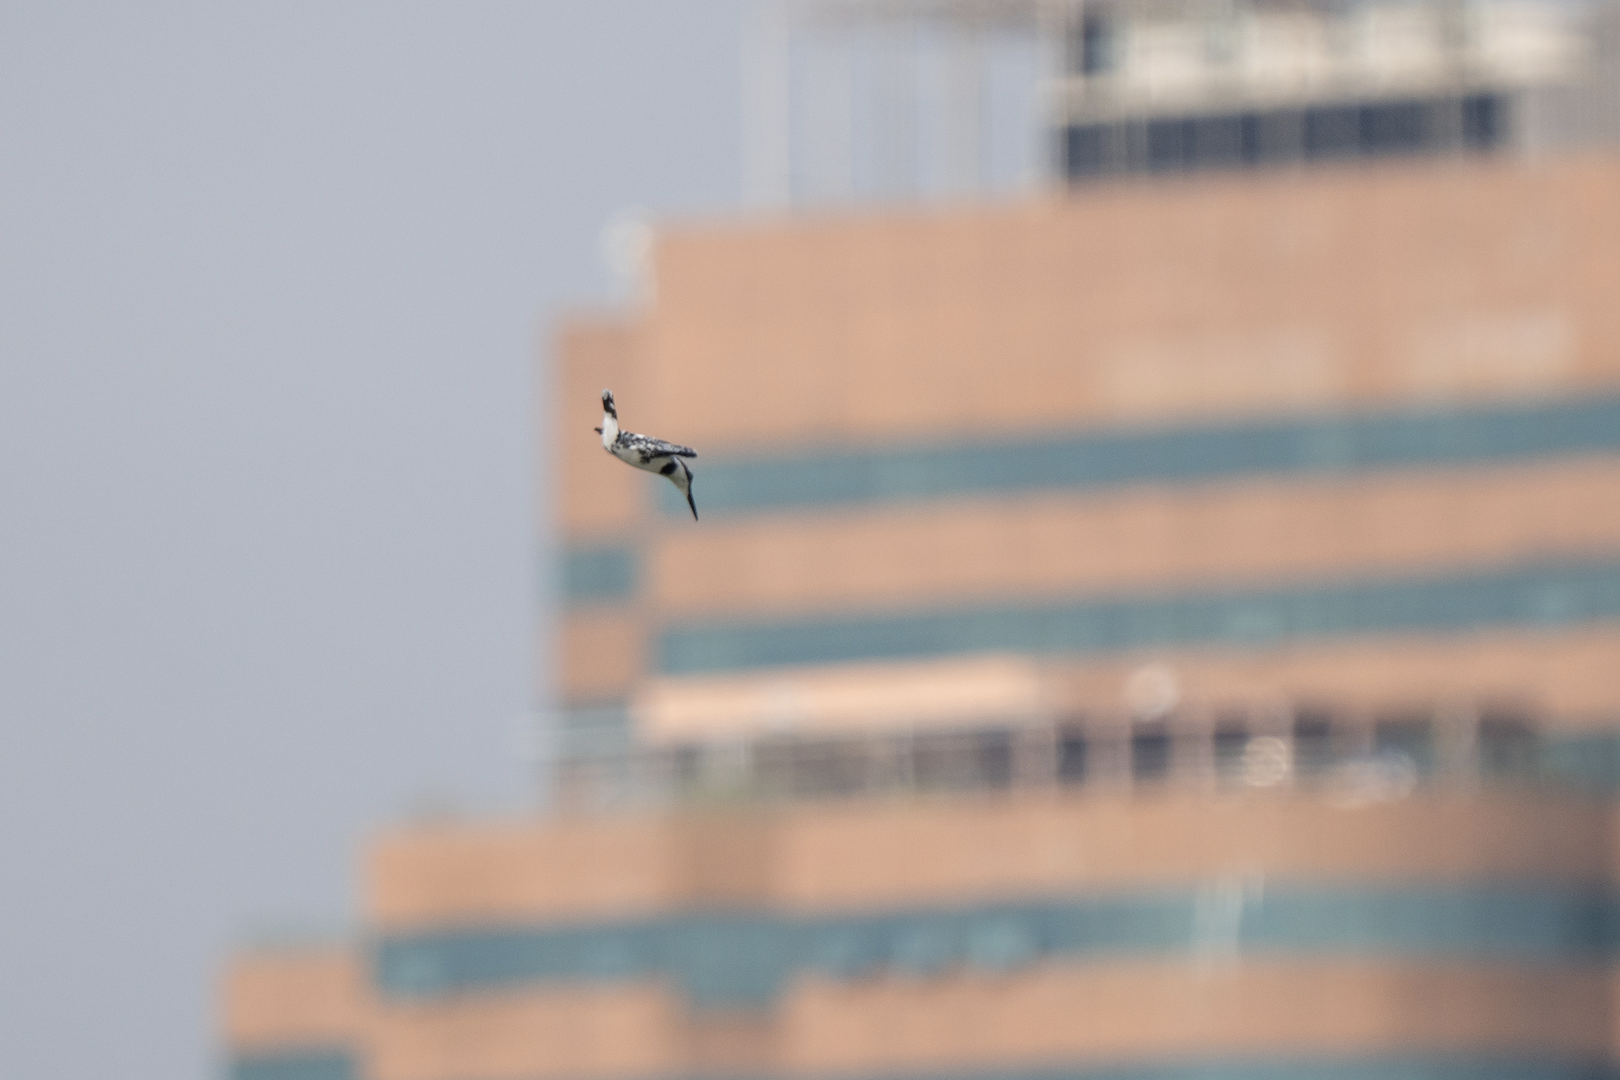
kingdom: Animalia
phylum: Chordata
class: Aves
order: Coraciiformes
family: Alcedinidae
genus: Ceryle
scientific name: Ceryle rudis
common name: Pied kingfisher
